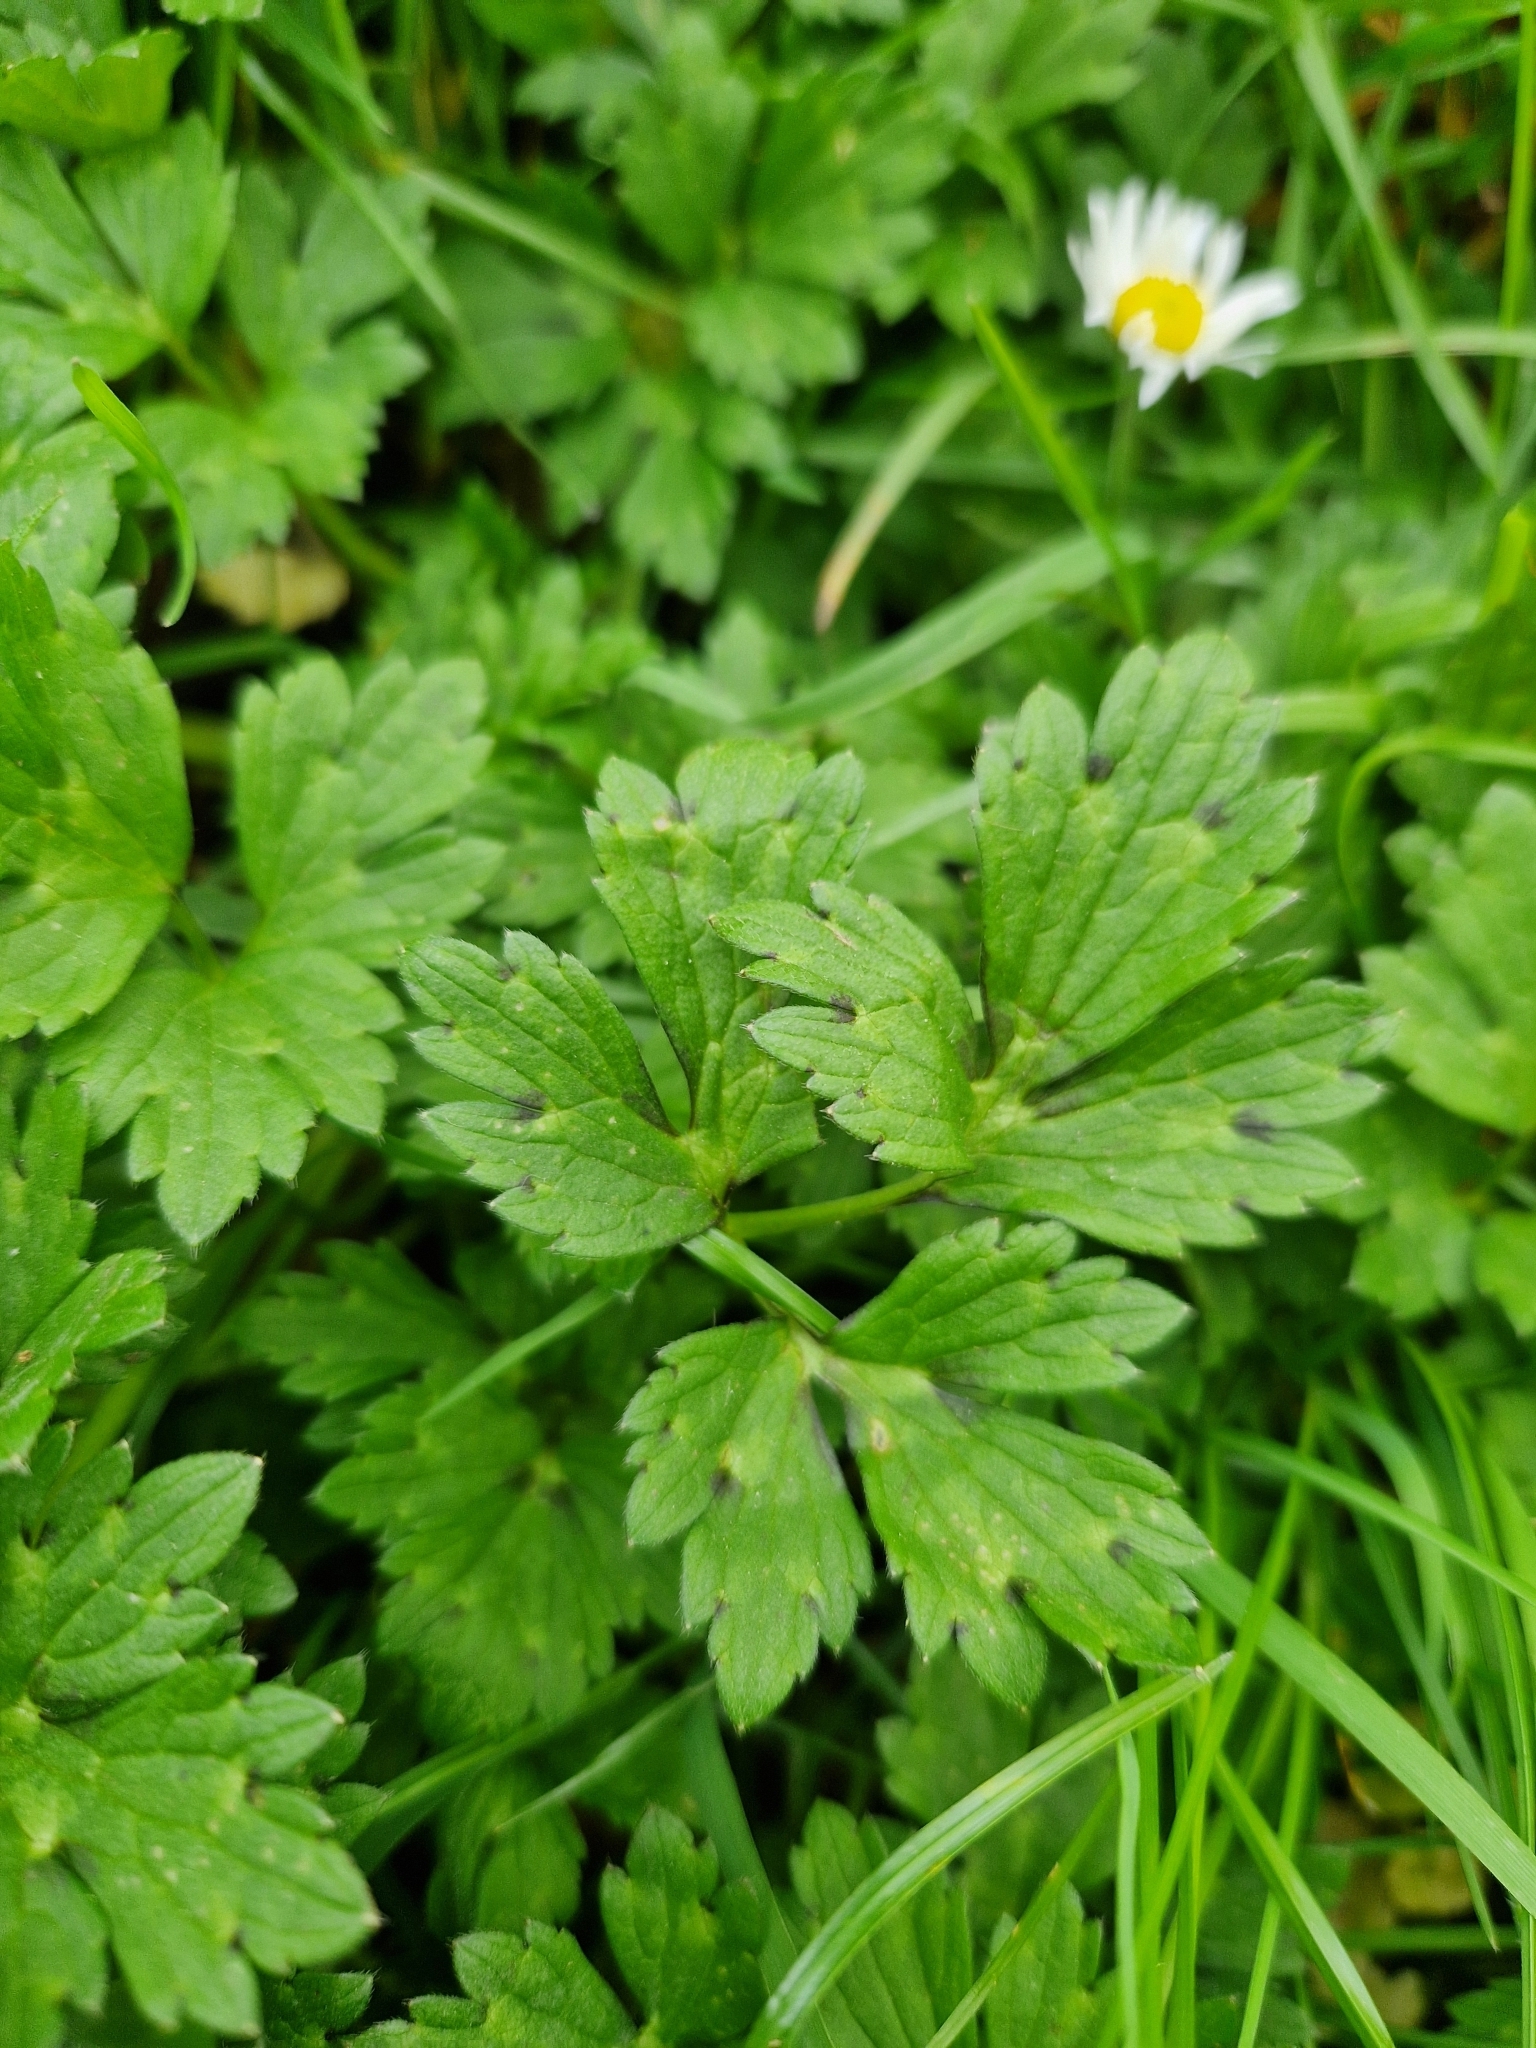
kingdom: Plantae
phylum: Tracheophyta
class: Magnoliopsida
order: Ranunculales
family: Ranunculaceae
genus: Ranunculus
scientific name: Ranunculus repens
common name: Creeping buttercup
